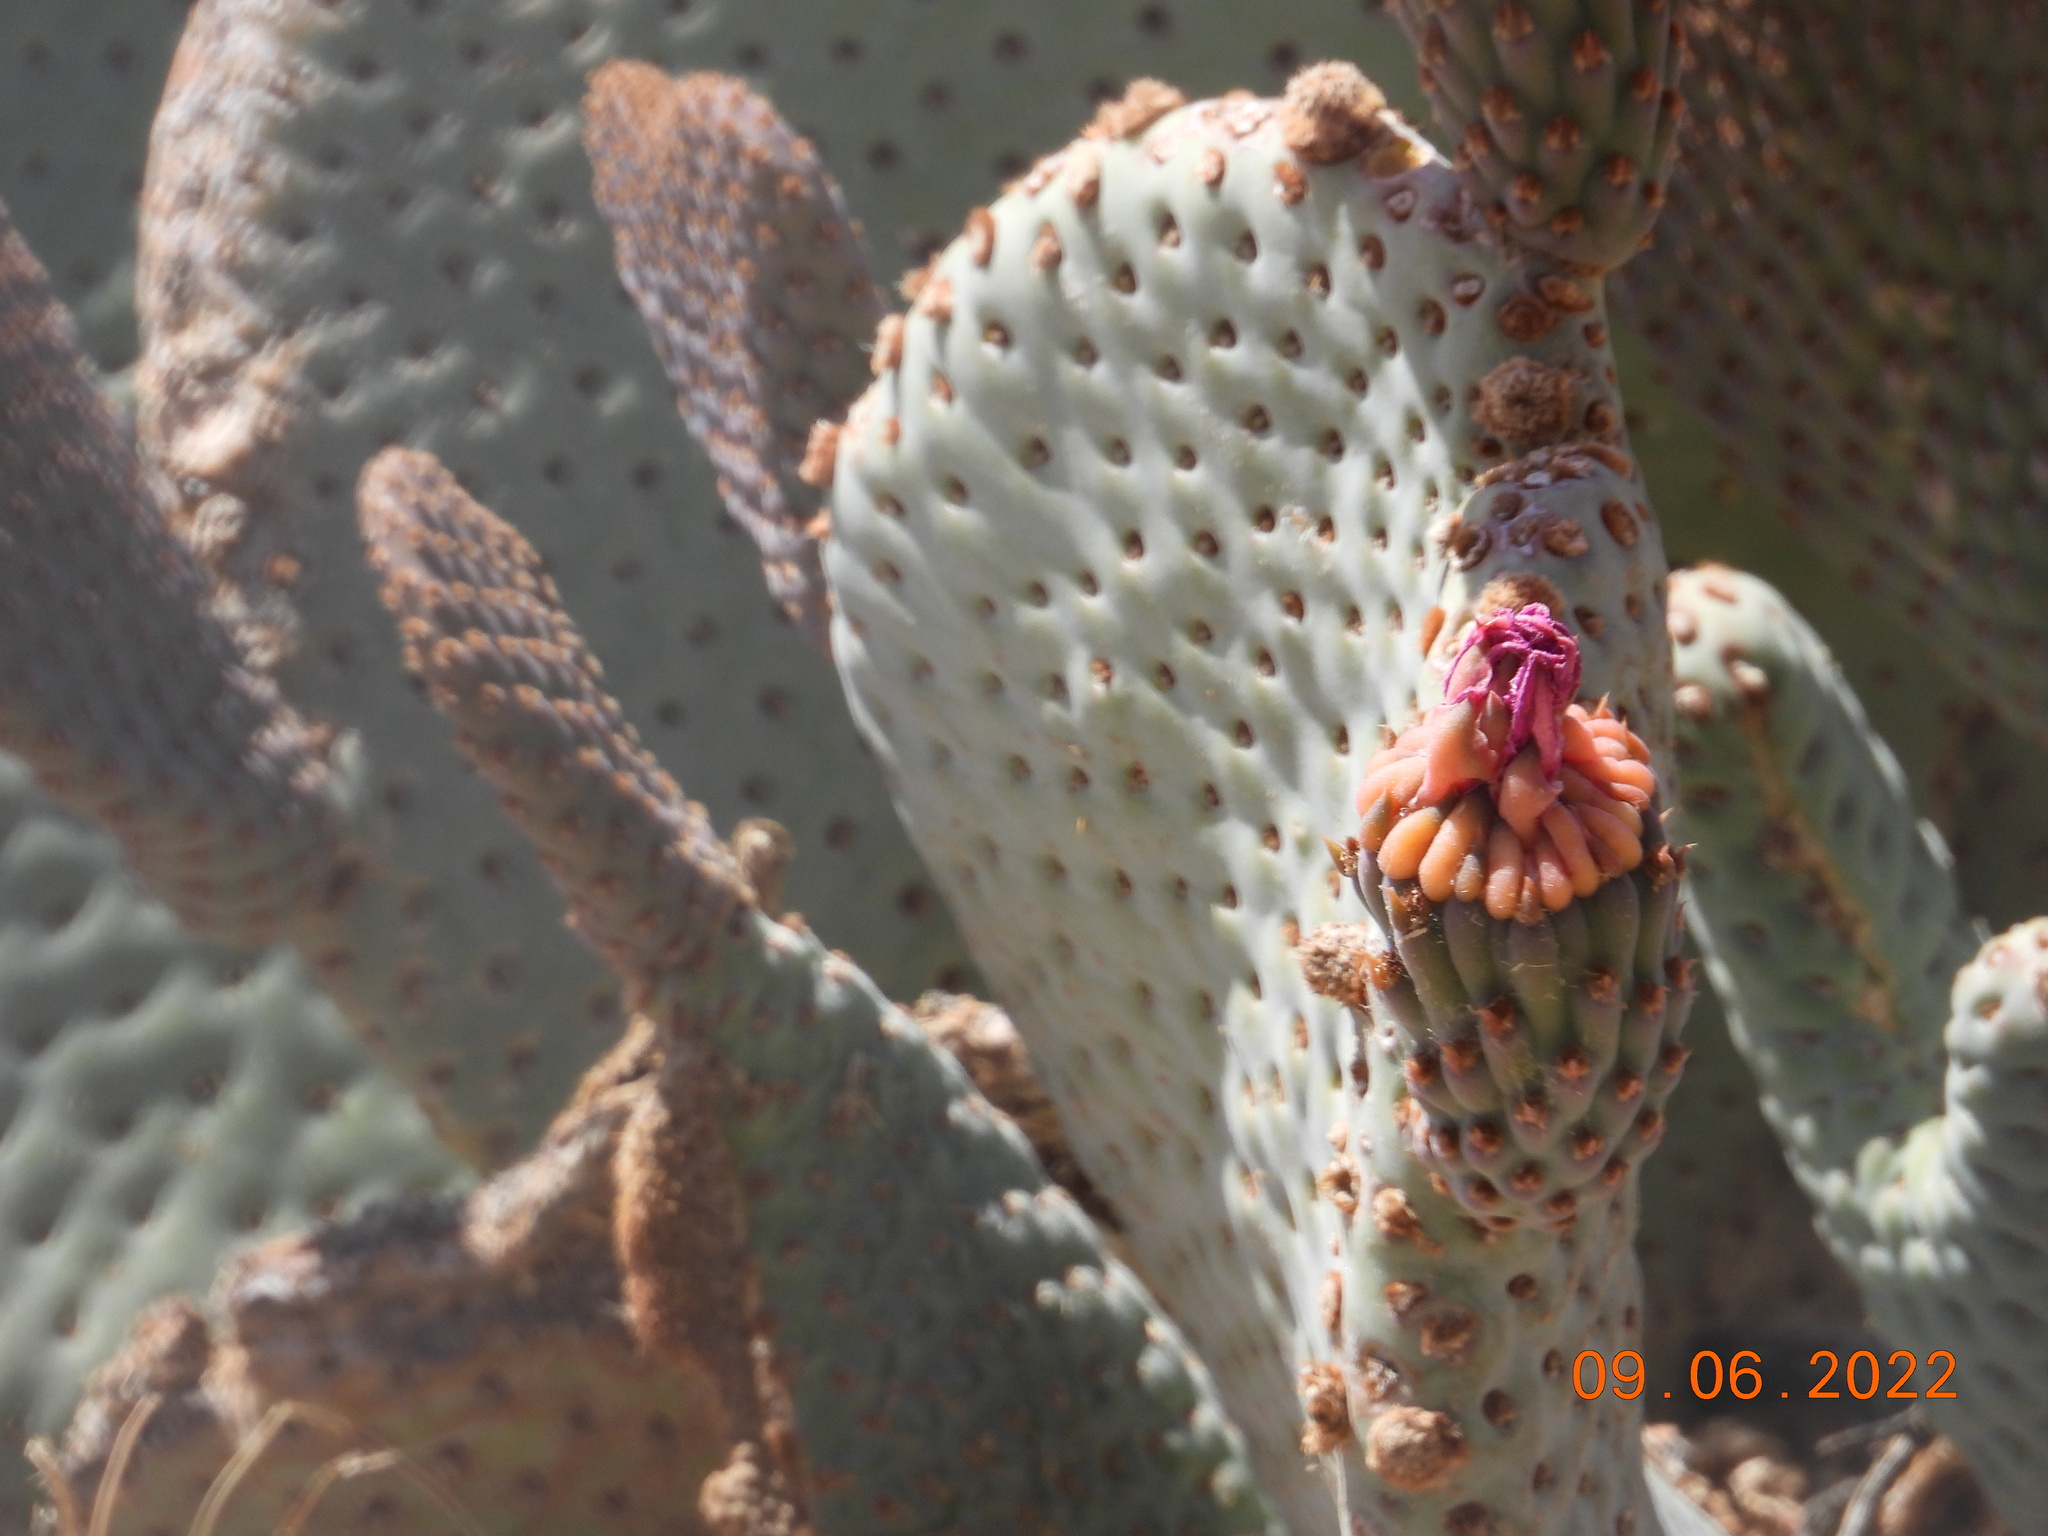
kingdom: Plantae
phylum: Tracheophyta
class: Magnoliopsida
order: Caryophyllales
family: Cactaceae
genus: Opuntia
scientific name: Opuntia basilaris
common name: Beavertail prickly-pear
